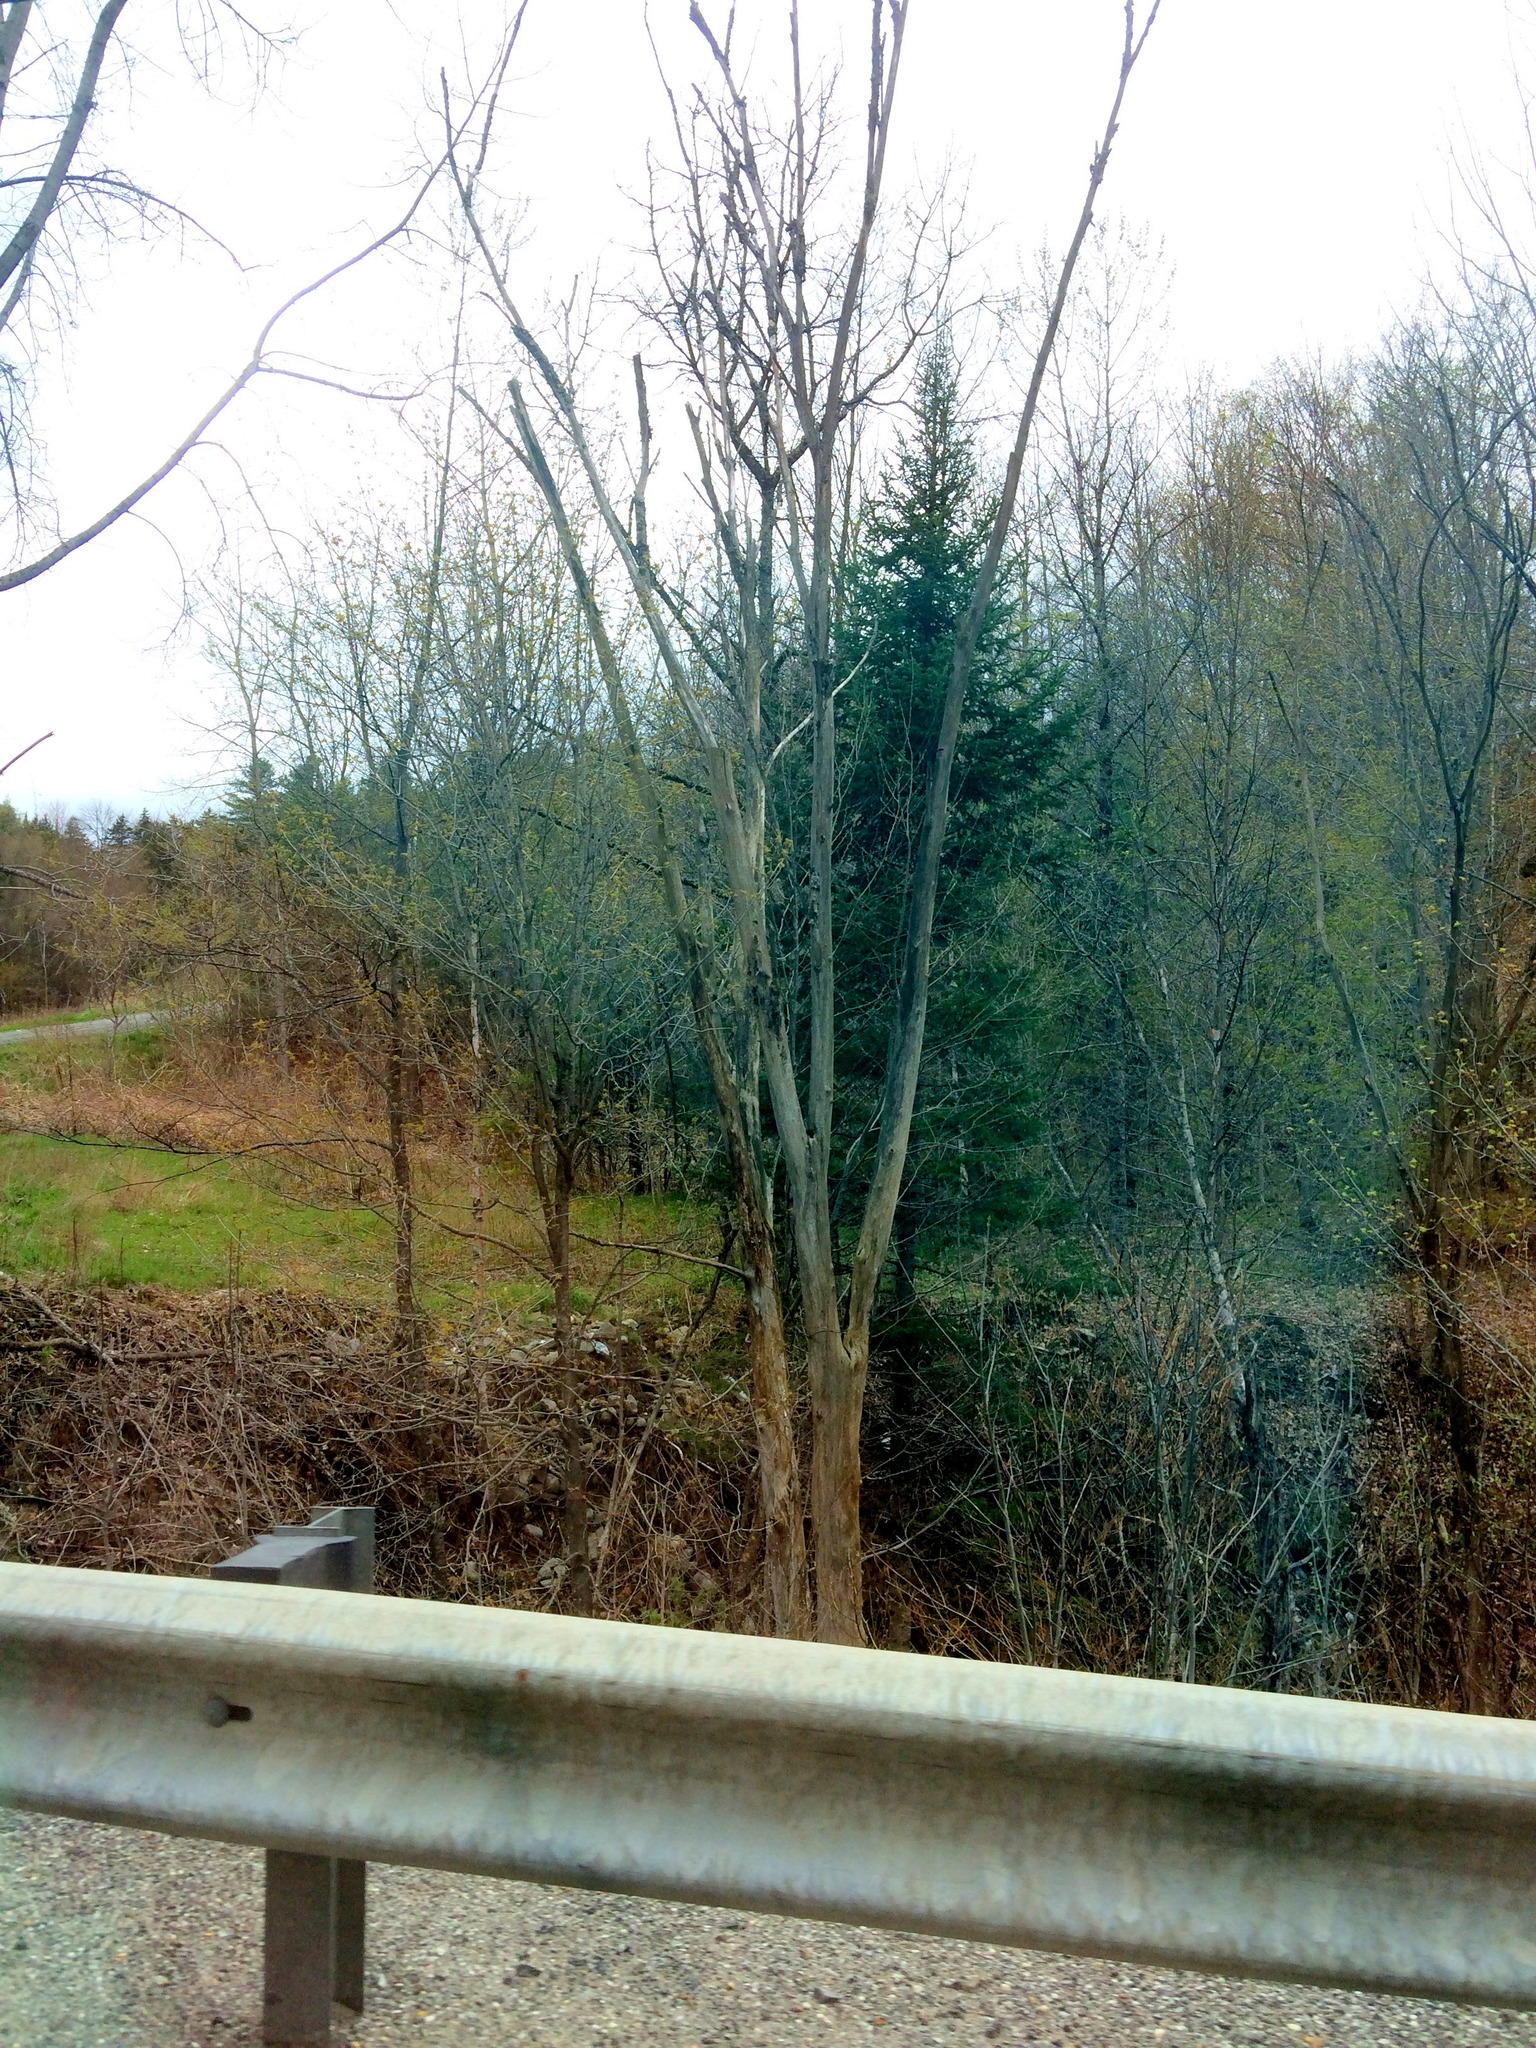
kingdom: Plantae
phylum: Tracheophyta
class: Pinopsida
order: Pinales
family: Pinaceae
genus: Abies
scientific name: Abies balsamea
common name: Balsam fir
